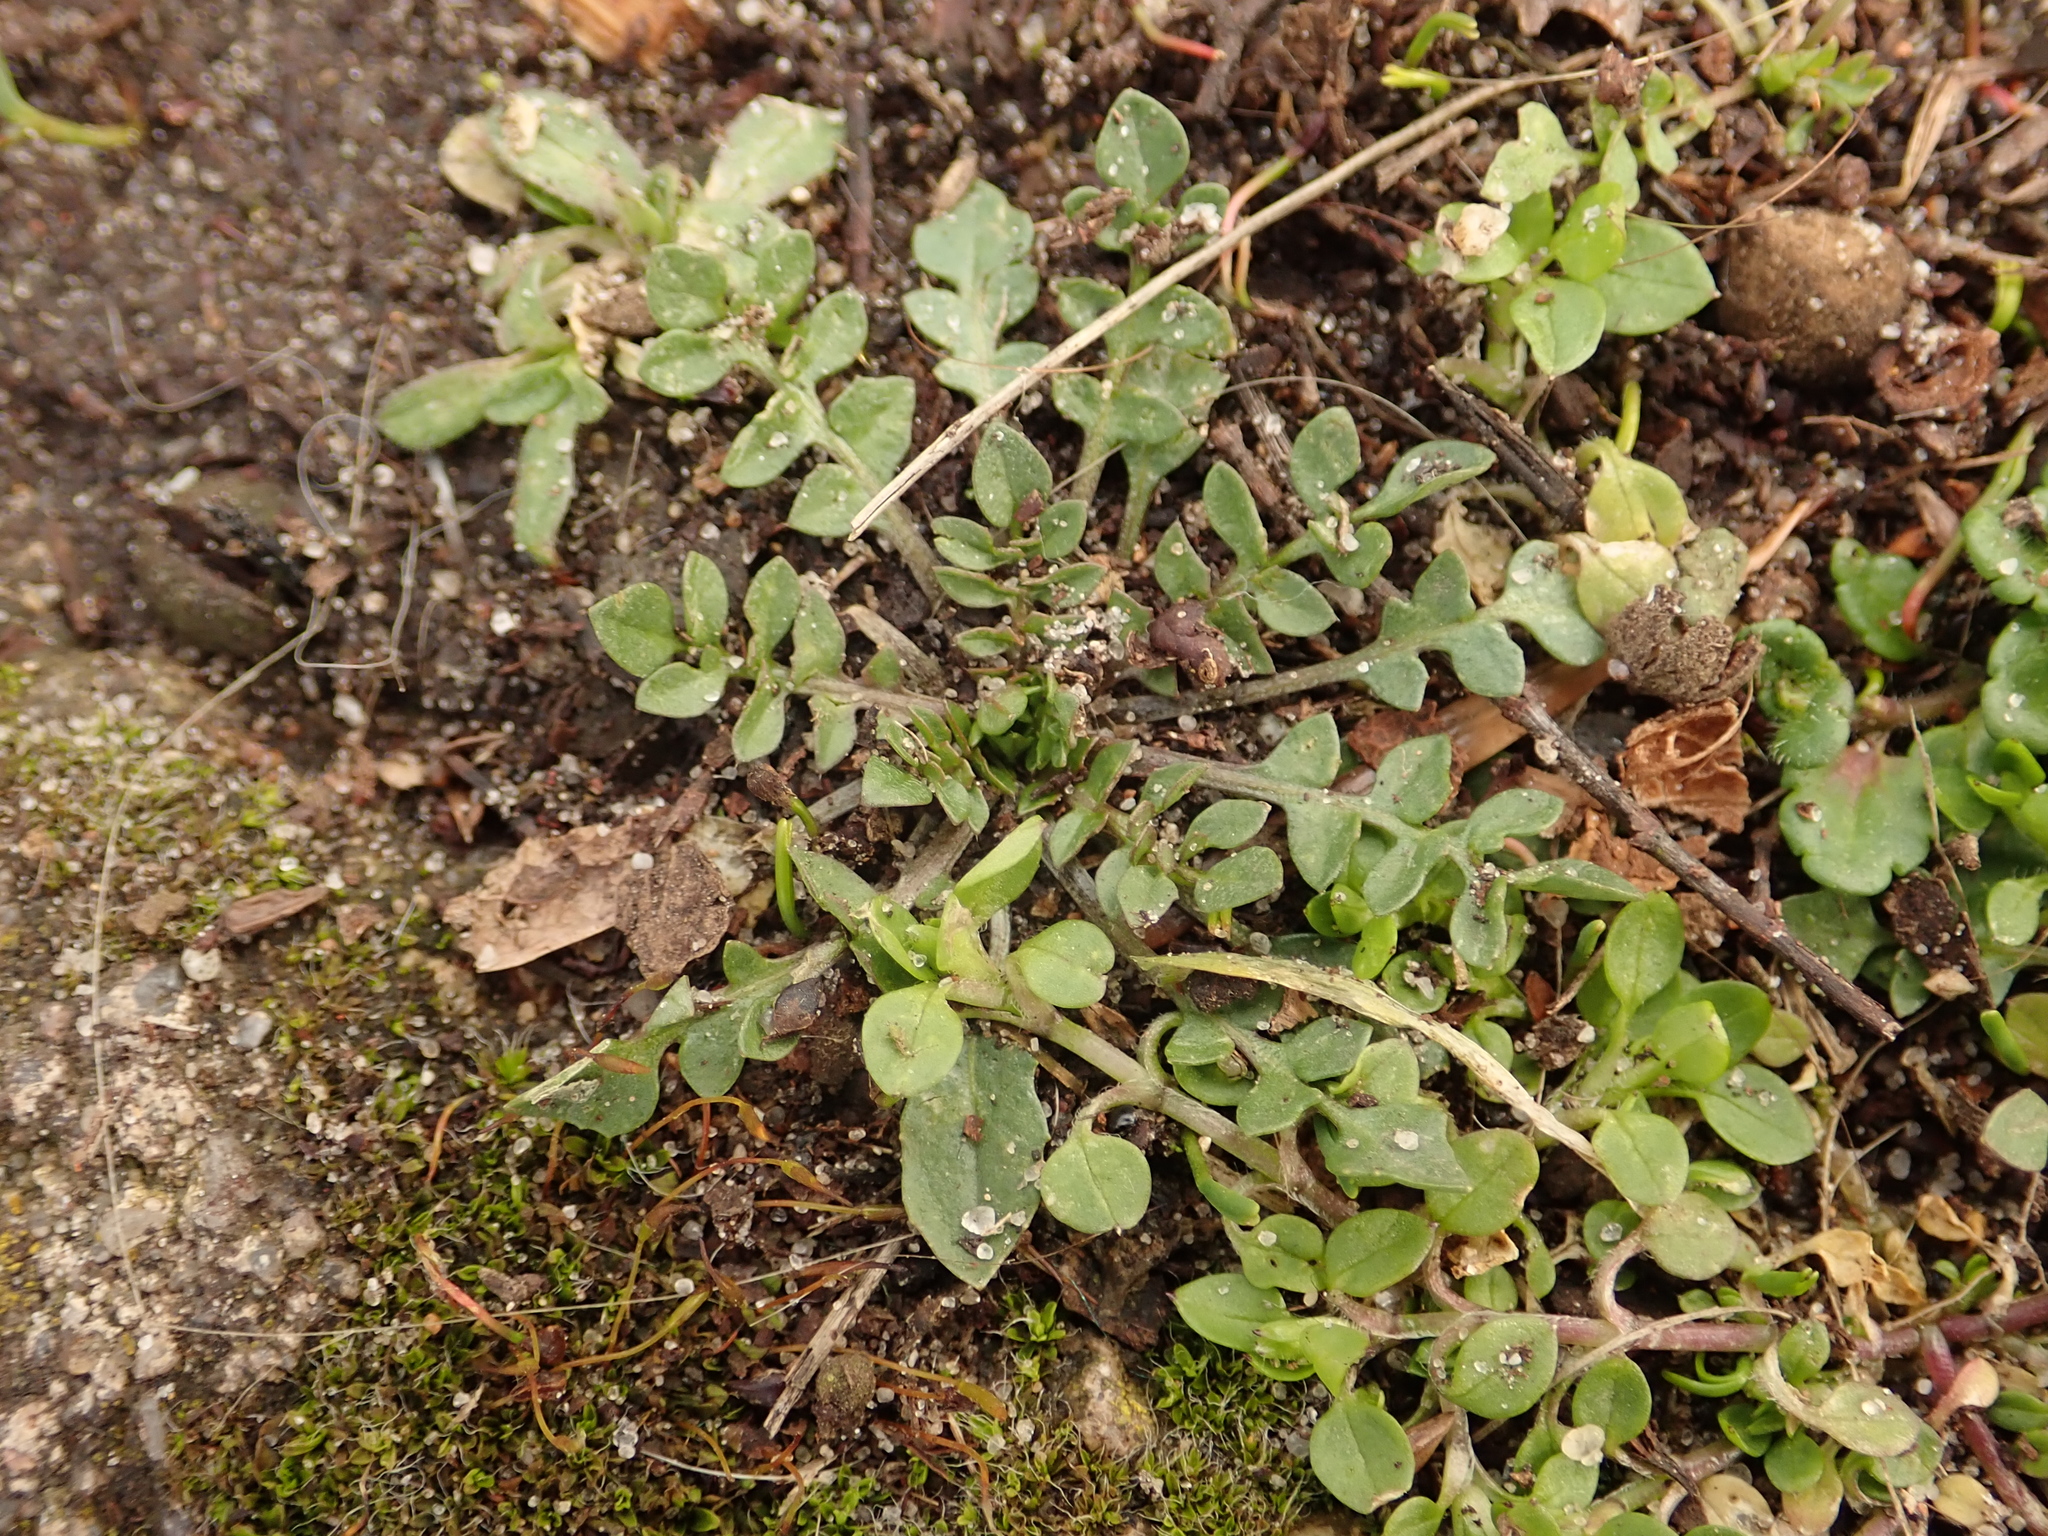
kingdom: Plantae
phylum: Tracheophyta
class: Magnoliopsida
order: Brassicales
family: Brassicaceae
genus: Capsella
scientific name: Capsella bursa-pastoris
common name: Shepherd's purse
